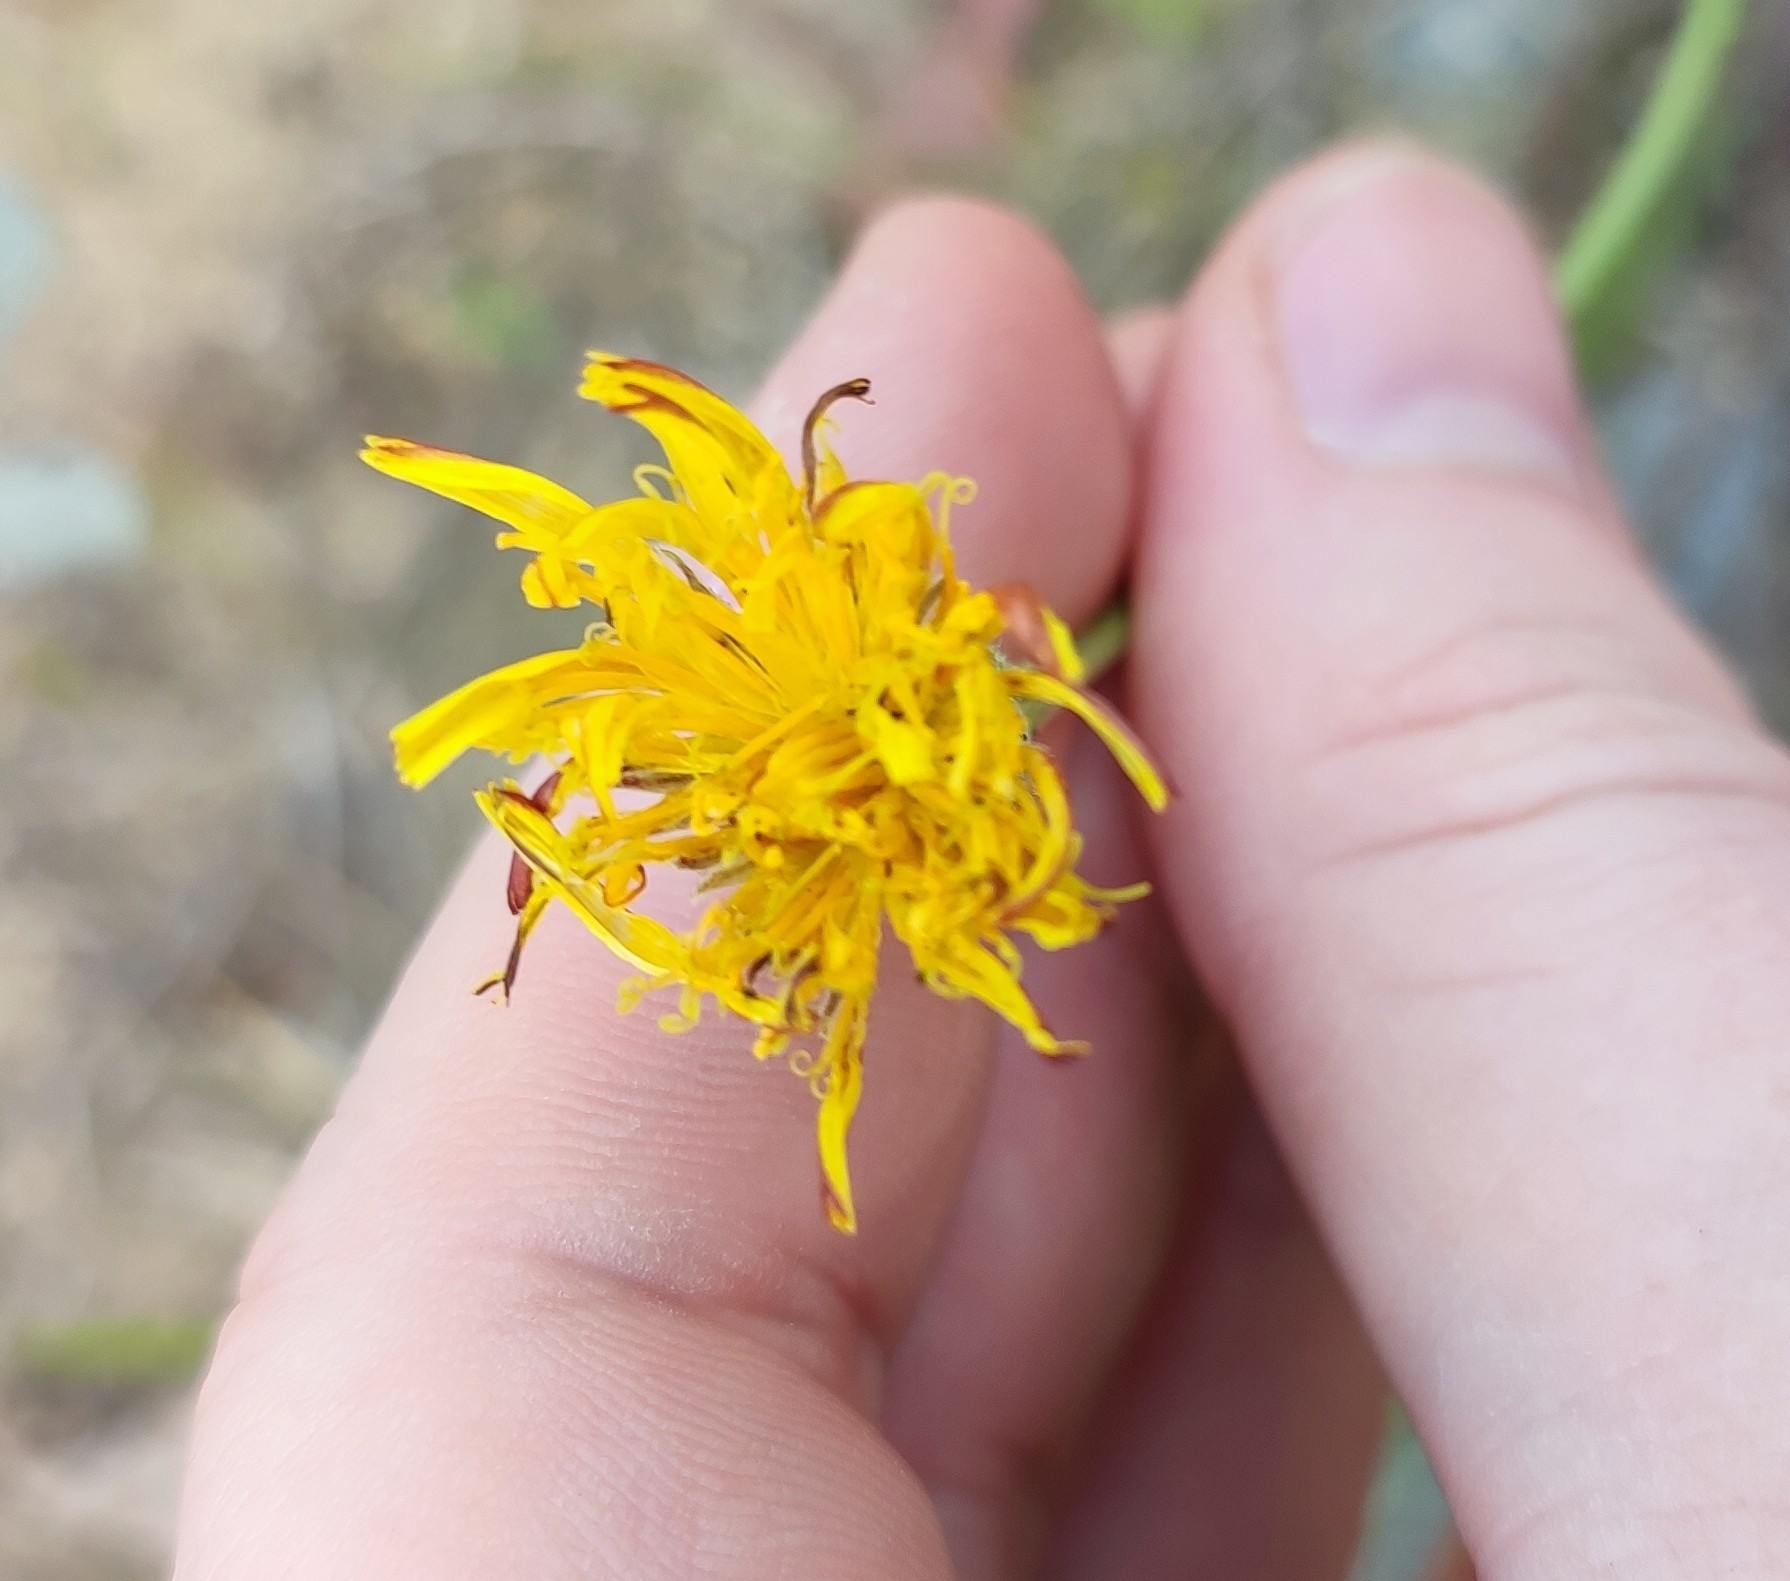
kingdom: Plantae
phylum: Tracheophyta
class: Magnoliopsida
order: Asterales
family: Asteraceae
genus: Scorzoneroides
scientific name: Scorzoneroides autumnalis
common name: Autumn hawkbit
